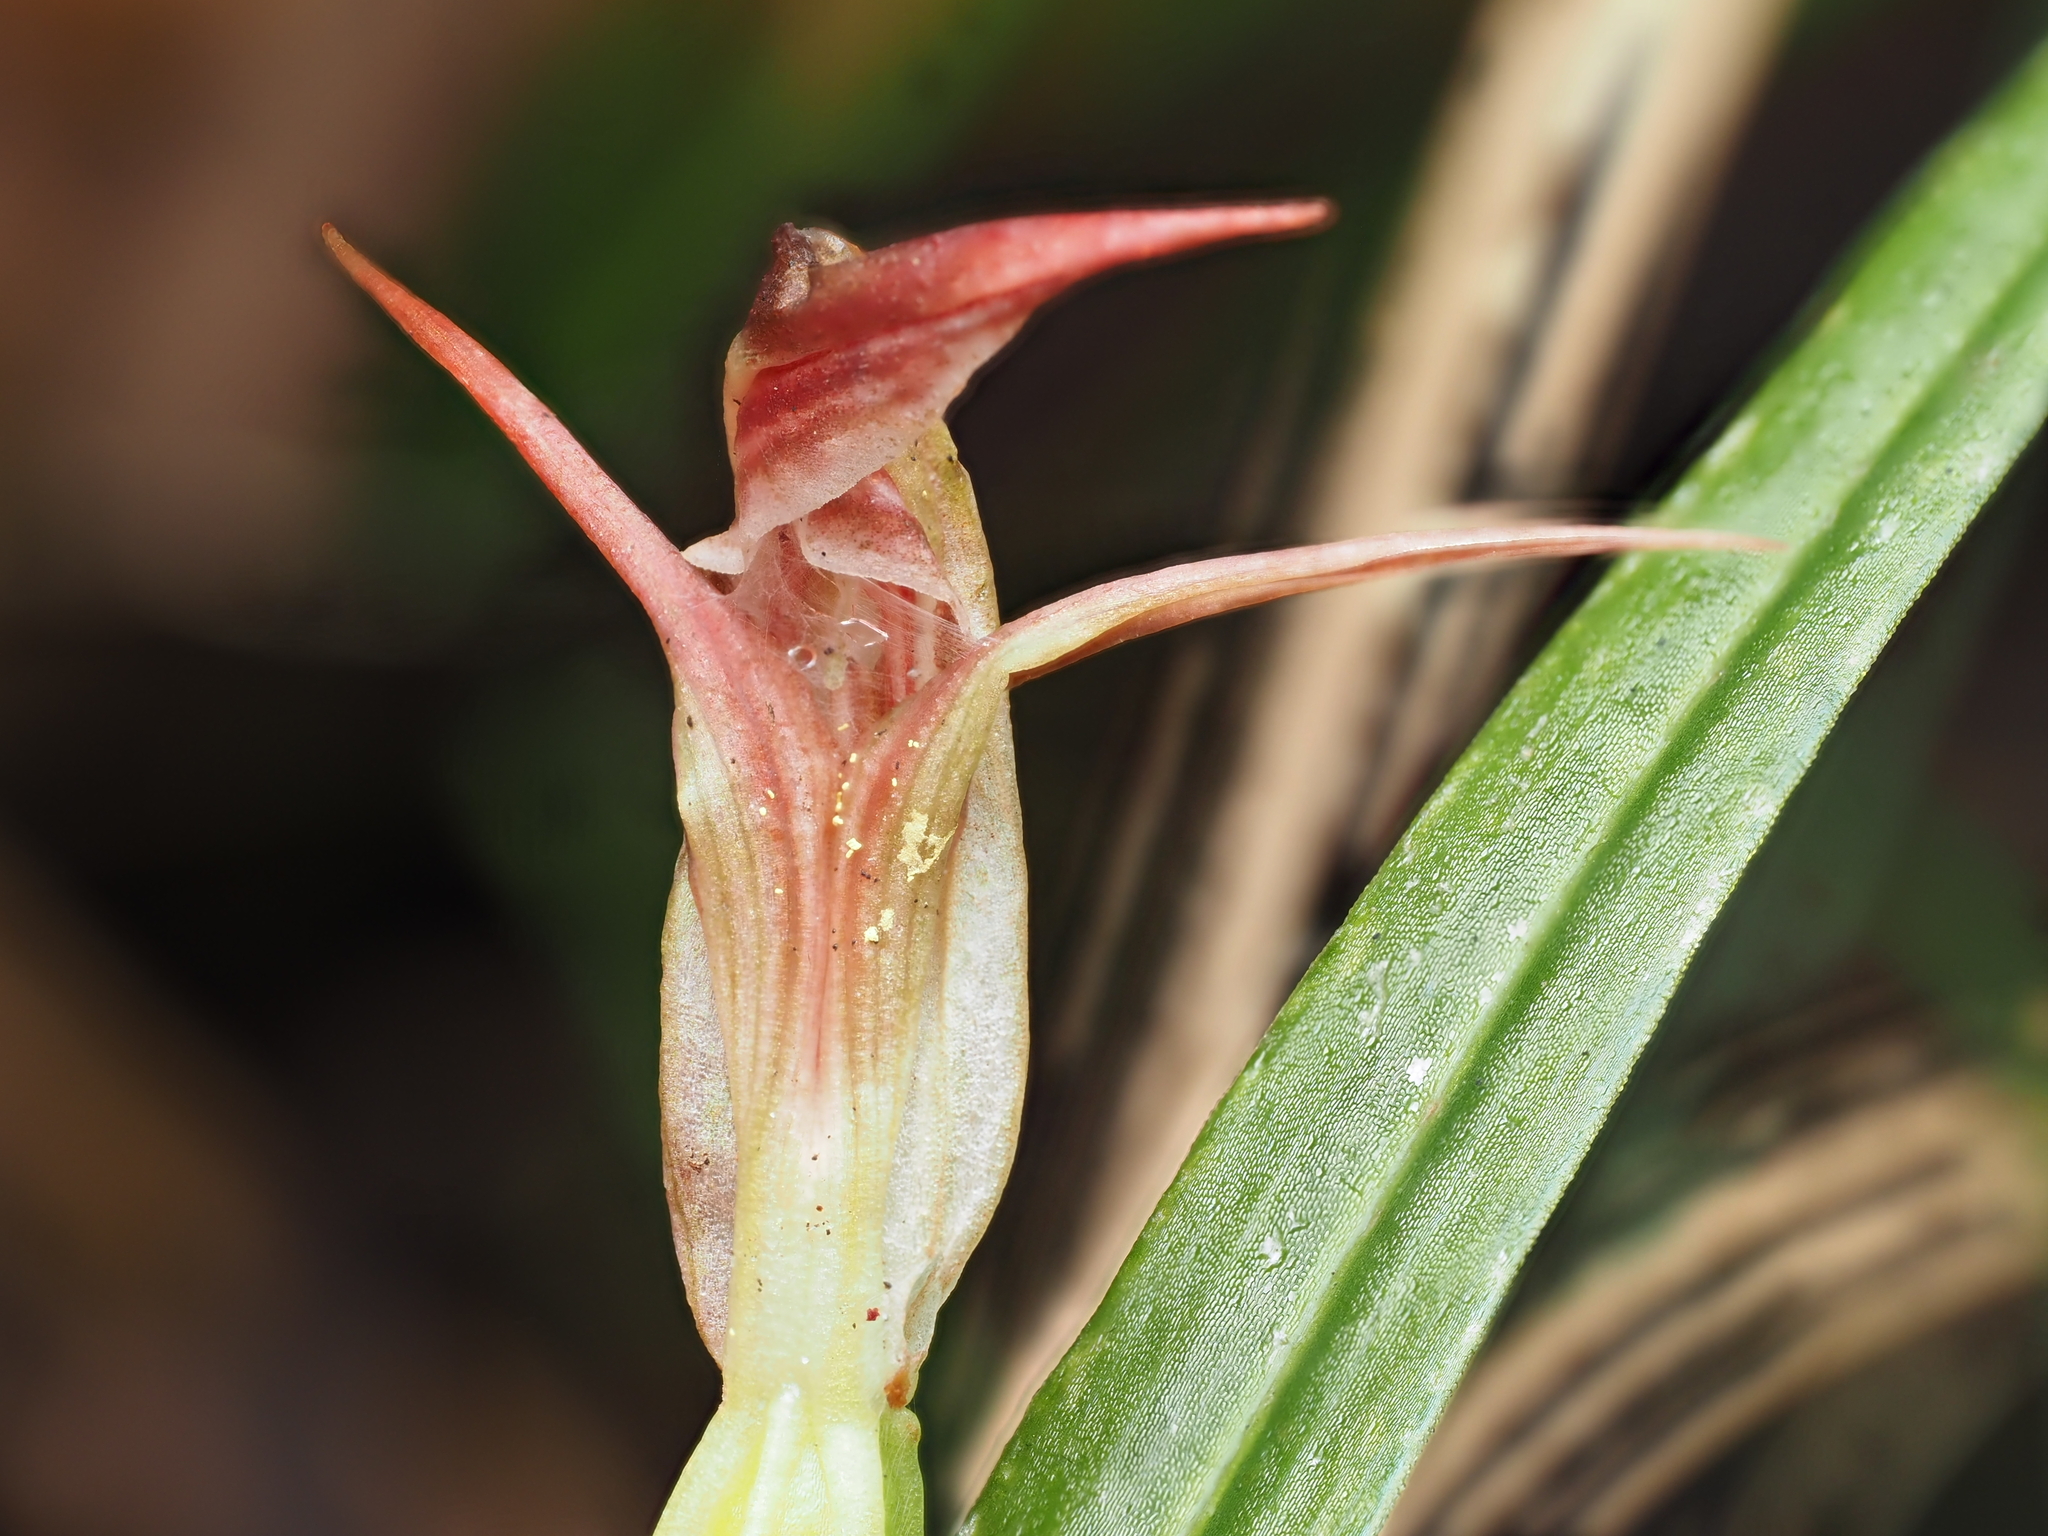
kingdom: Plantae
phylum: Tracheophyta
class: Liliopsida
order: Asparagales
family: Orchidaceae
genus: Pterostylis
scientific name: Pterostylis irsoniana
